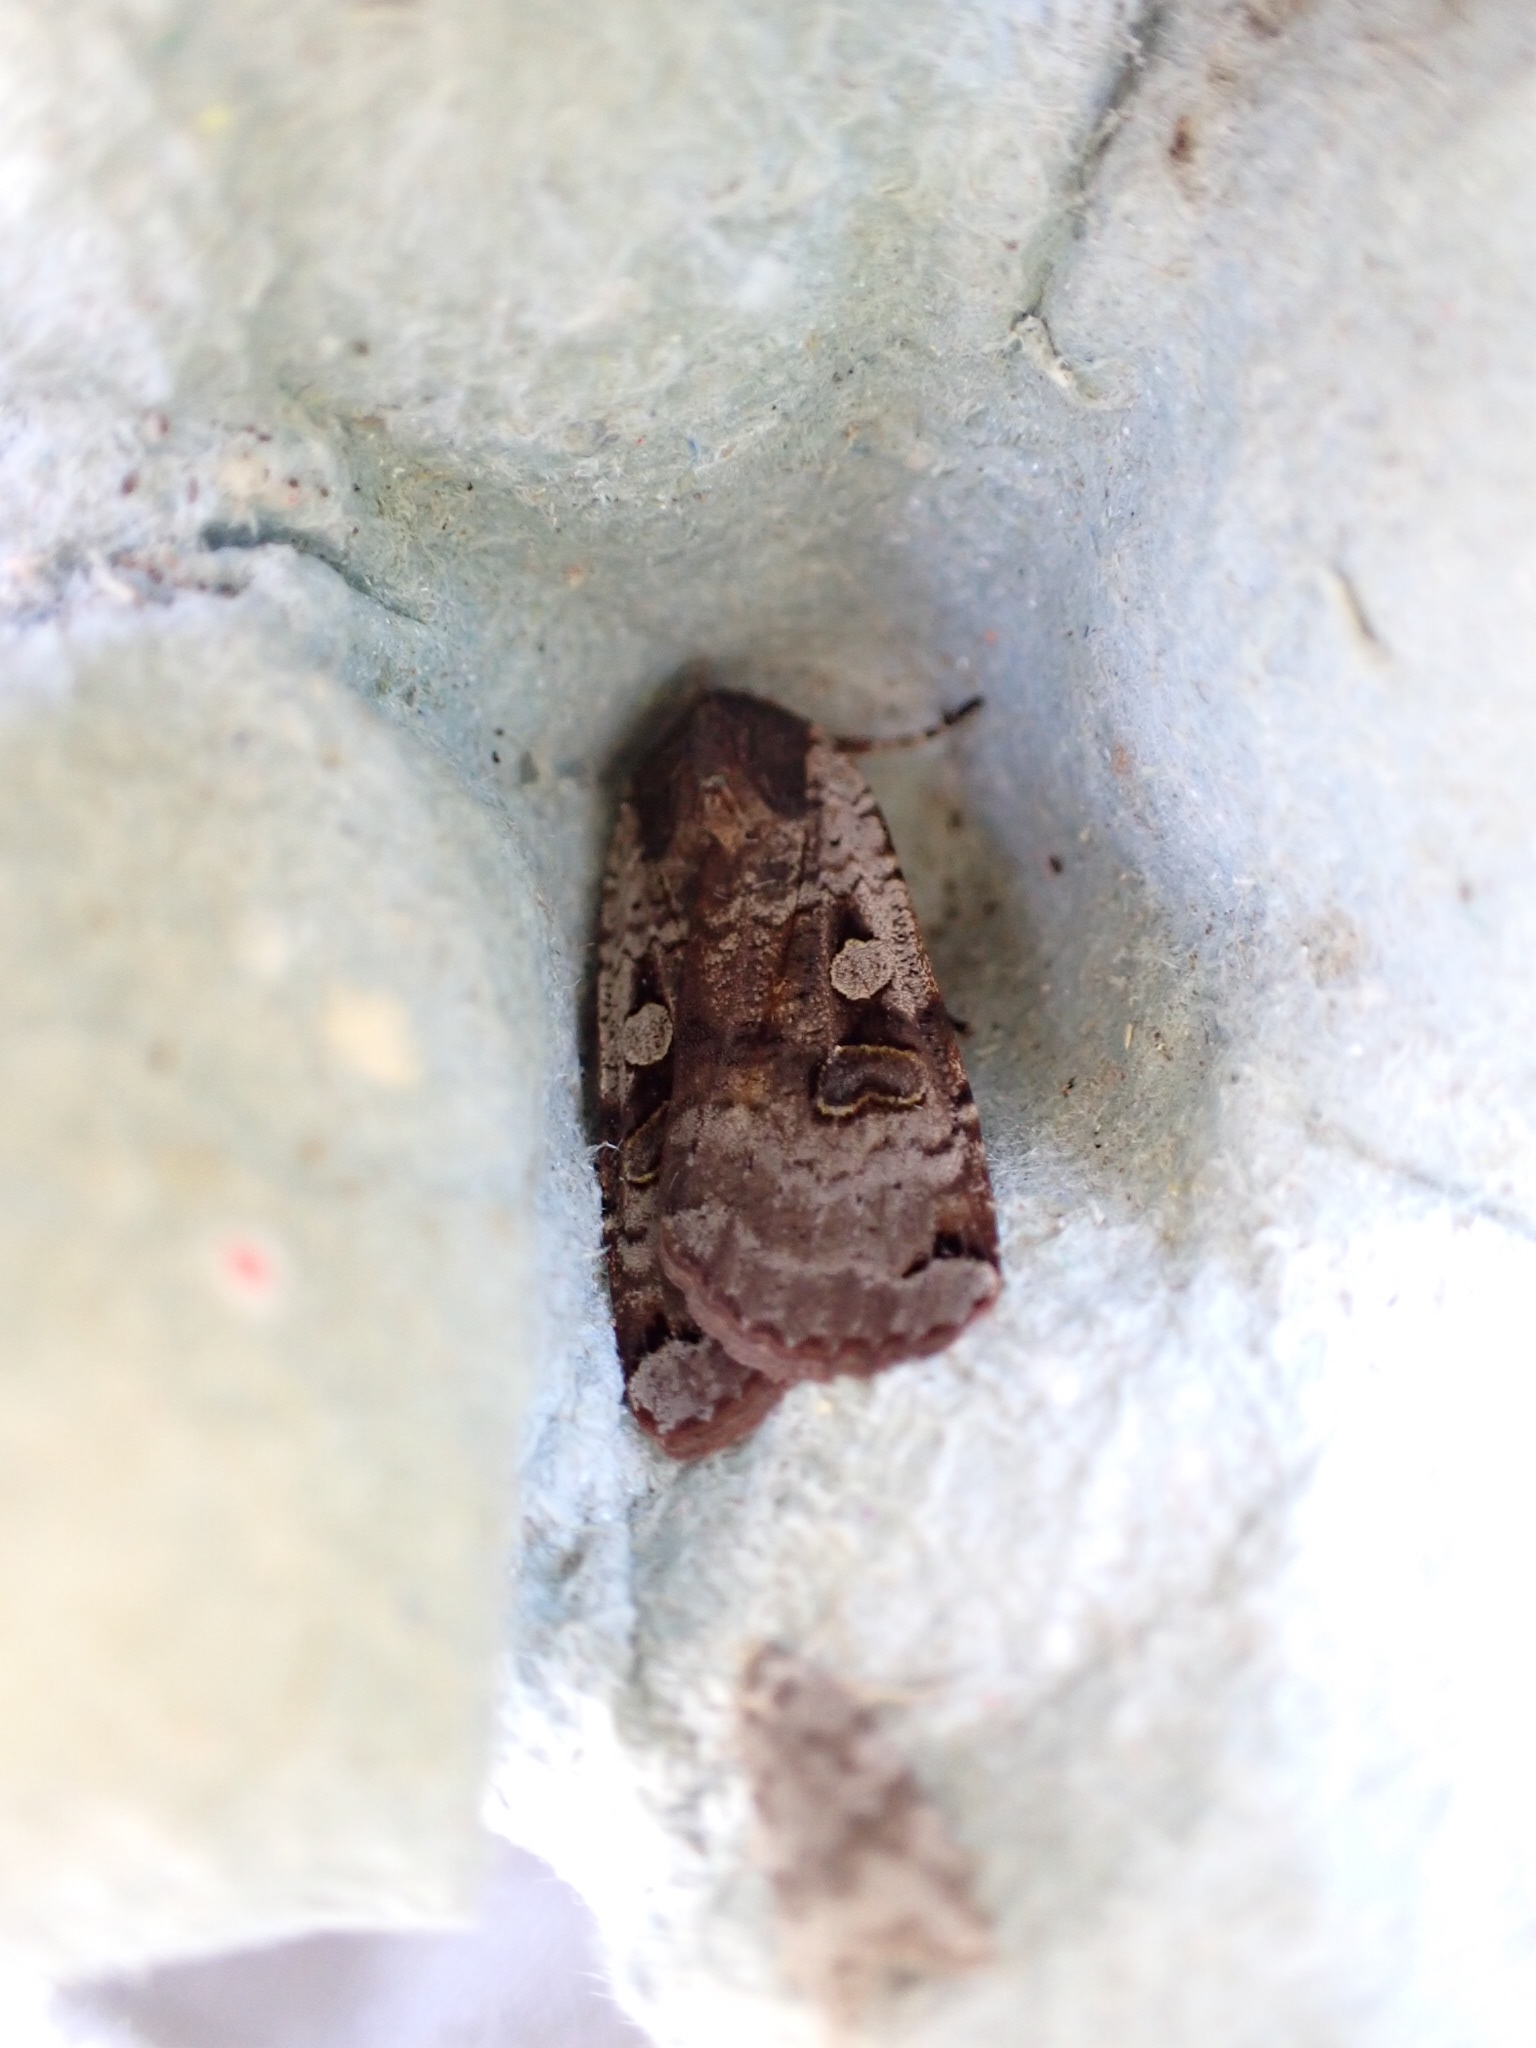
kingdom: Animalia
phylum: Arthropoda
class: Insecta
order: Lepidoptera
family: Noctuidae
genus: Noctua
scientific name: Noctua pronuba
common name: Large yellow underwing
